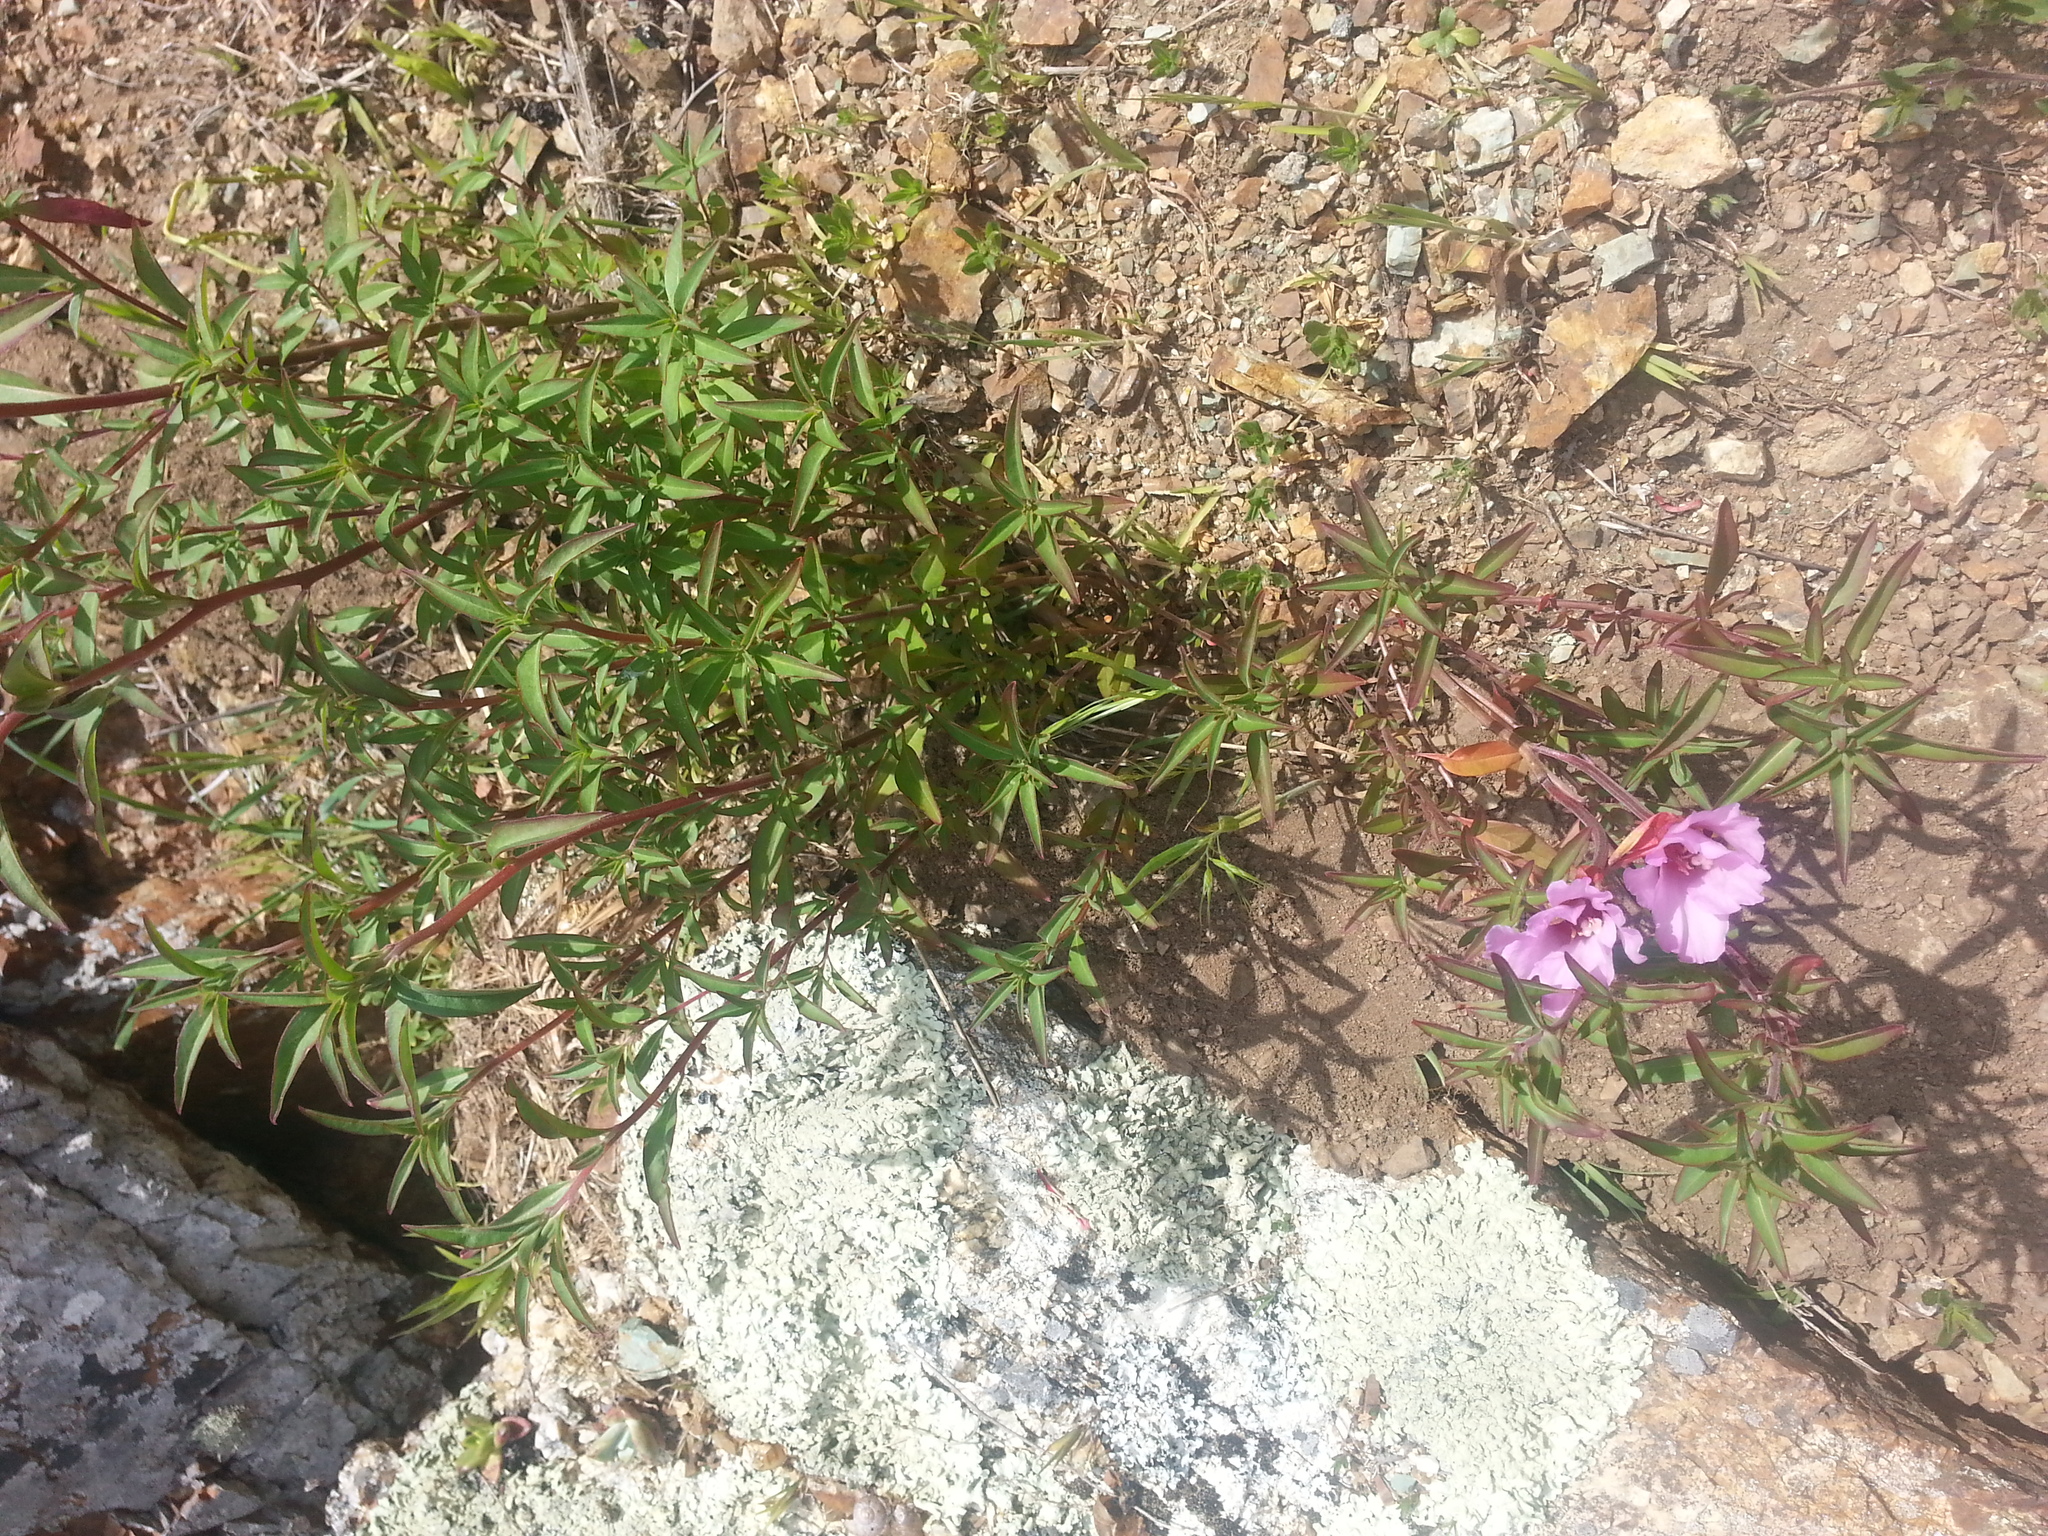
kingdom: Plantae
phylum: Tracheophyta
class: Magnoliopsida
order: Myrtales
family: Onagraceae
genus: Clarkia
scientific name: Clarkia rubicunda
